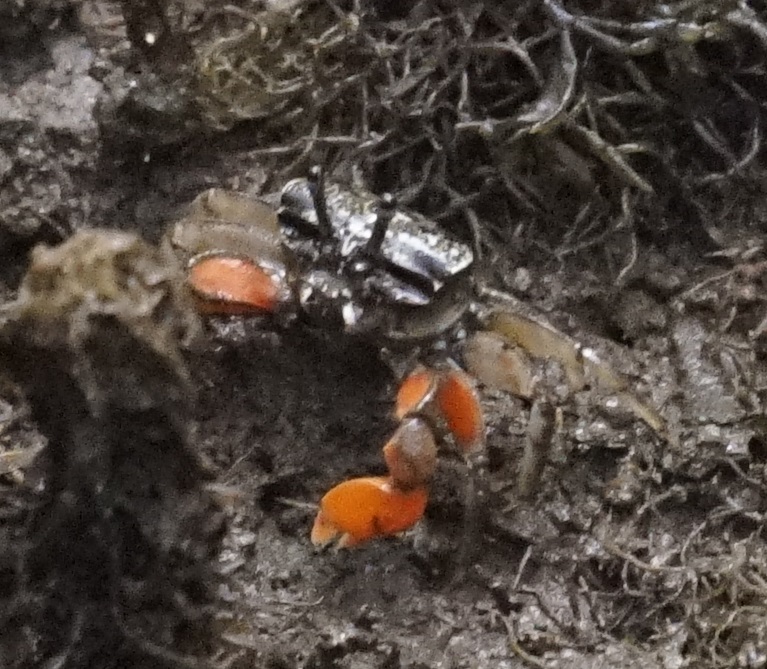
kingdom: Animalia
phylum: Arthropoda
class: Malacostraca
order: Decapoda
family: Heloeciidae
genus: Heloecius
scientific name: Heloecius cordiformis
